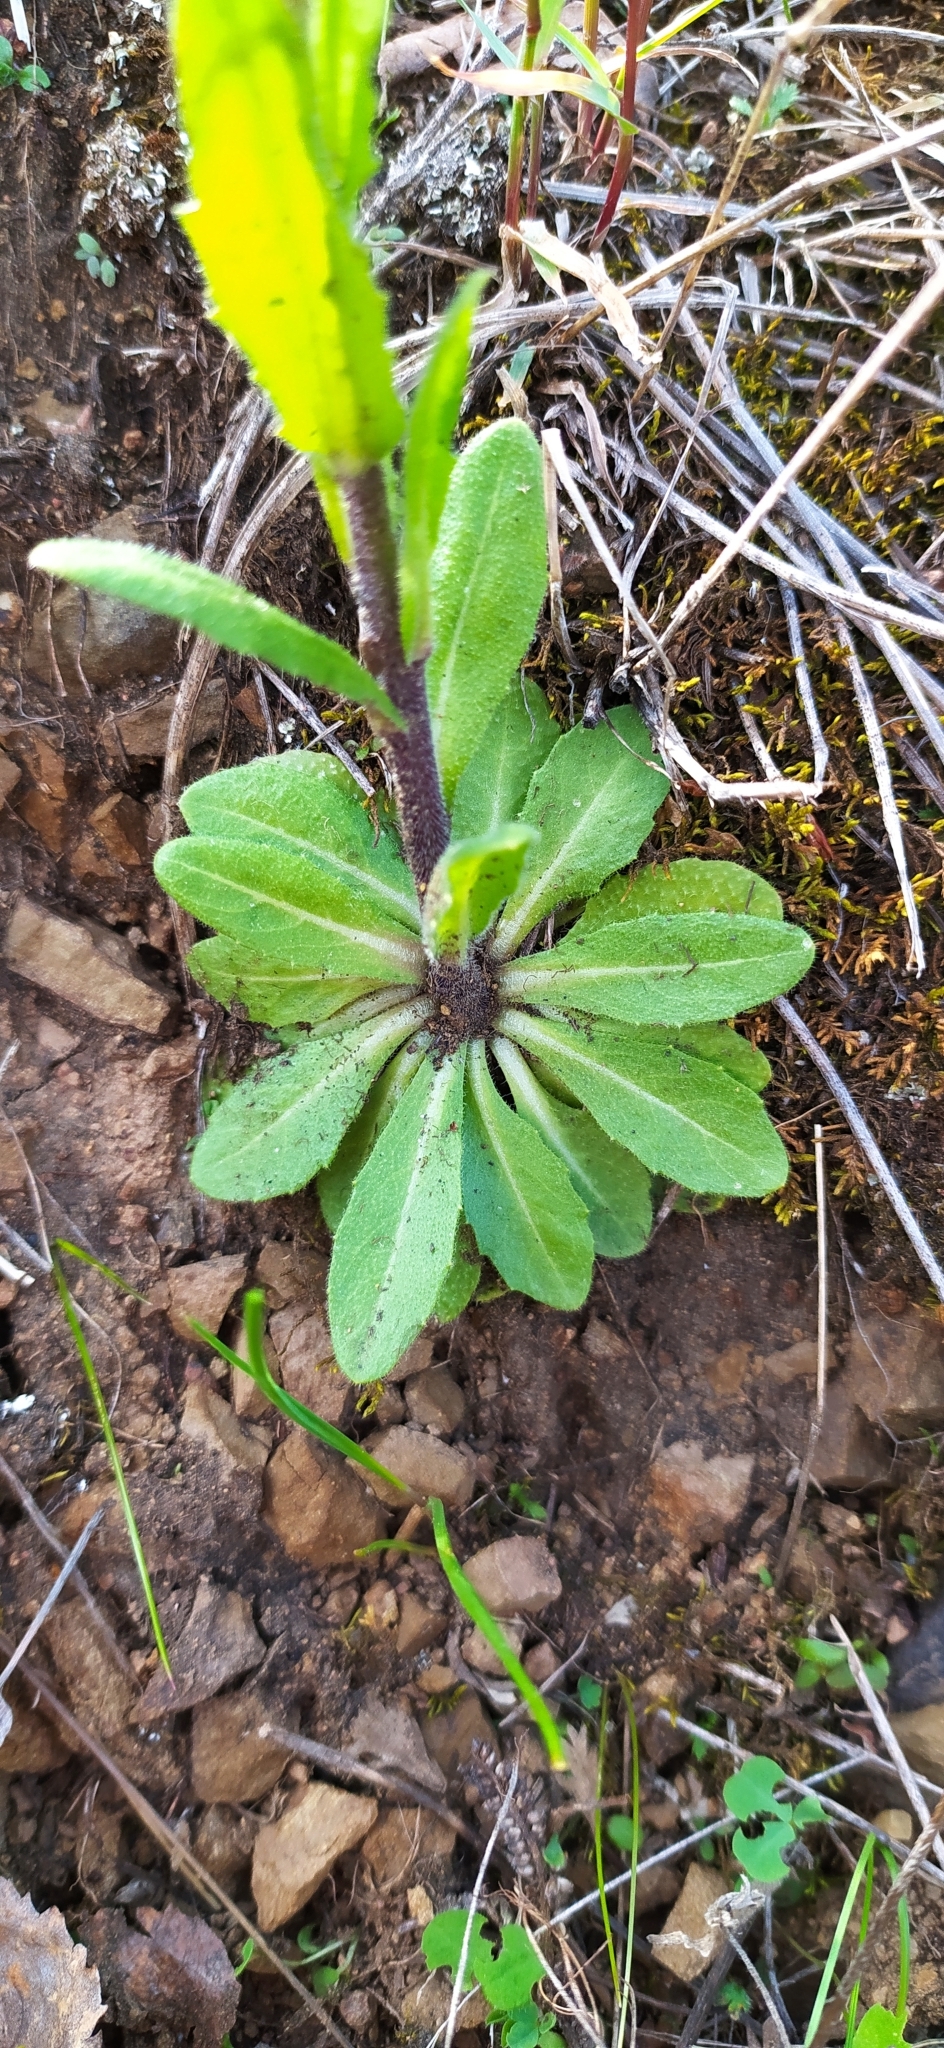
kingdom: Plantae
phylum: Tracheophyta
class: Magnoliopsida
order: Brassicales
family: Brassicaceae
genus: Arabis
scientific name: Arabis sagittata
